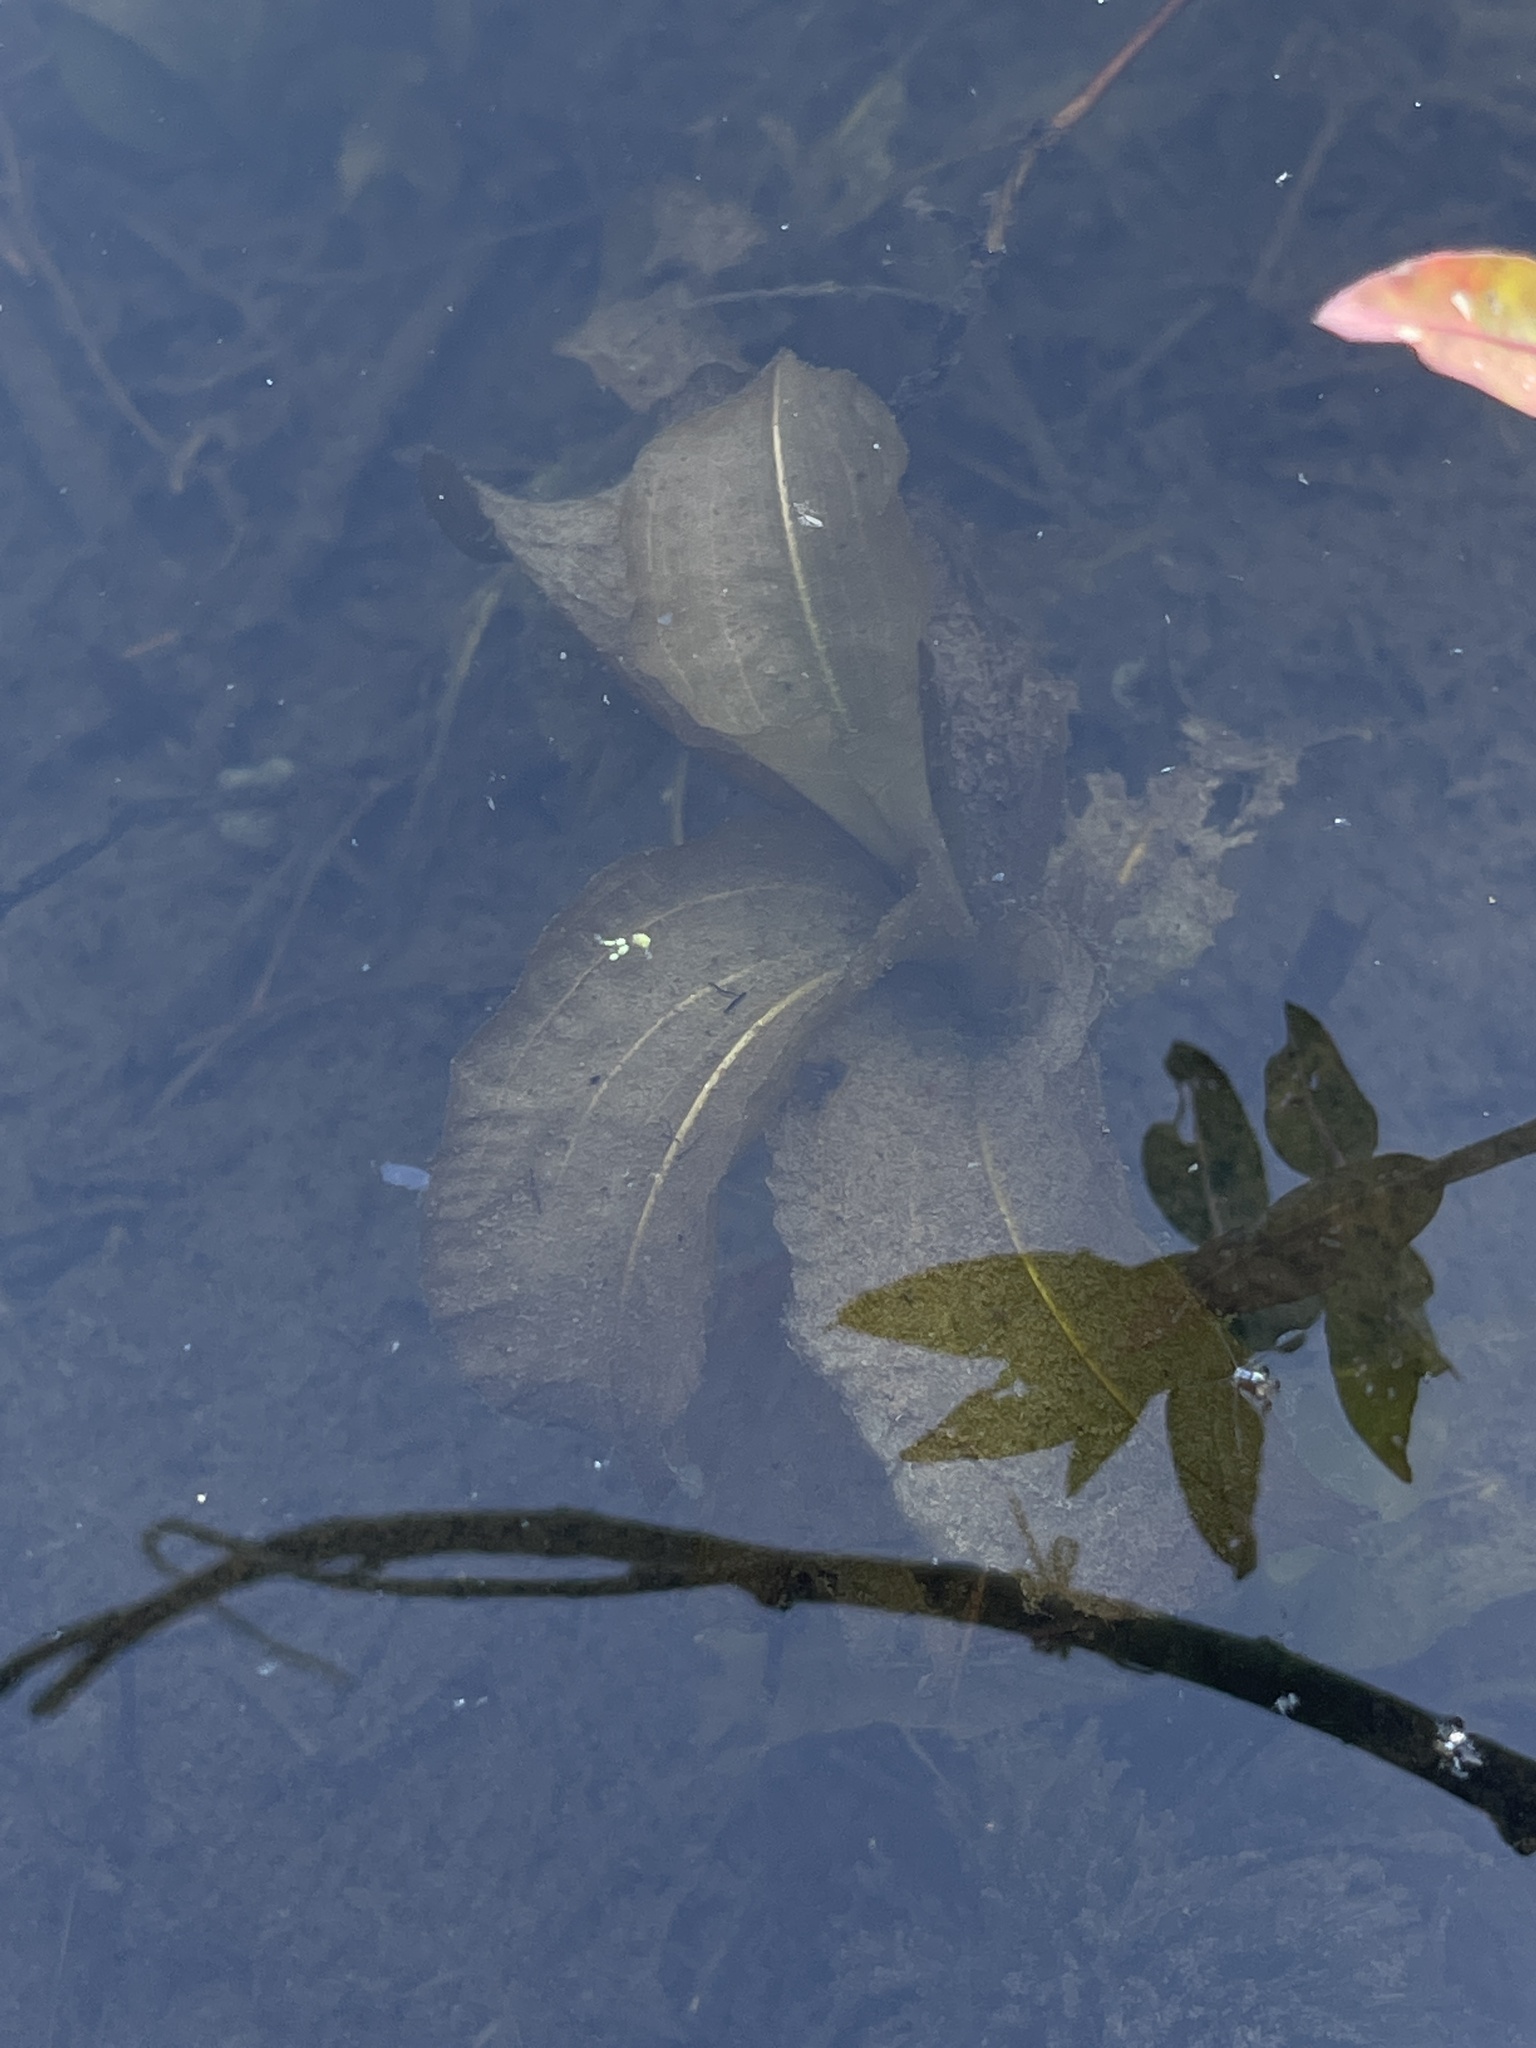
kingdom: Plantae
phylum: Tracheophyta
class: Liliopsida
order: Alismatales
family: Potamogetonaceae
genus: Potamogeton
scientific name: Potamogeton amplifolius
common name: Broad-leaved pondweed
